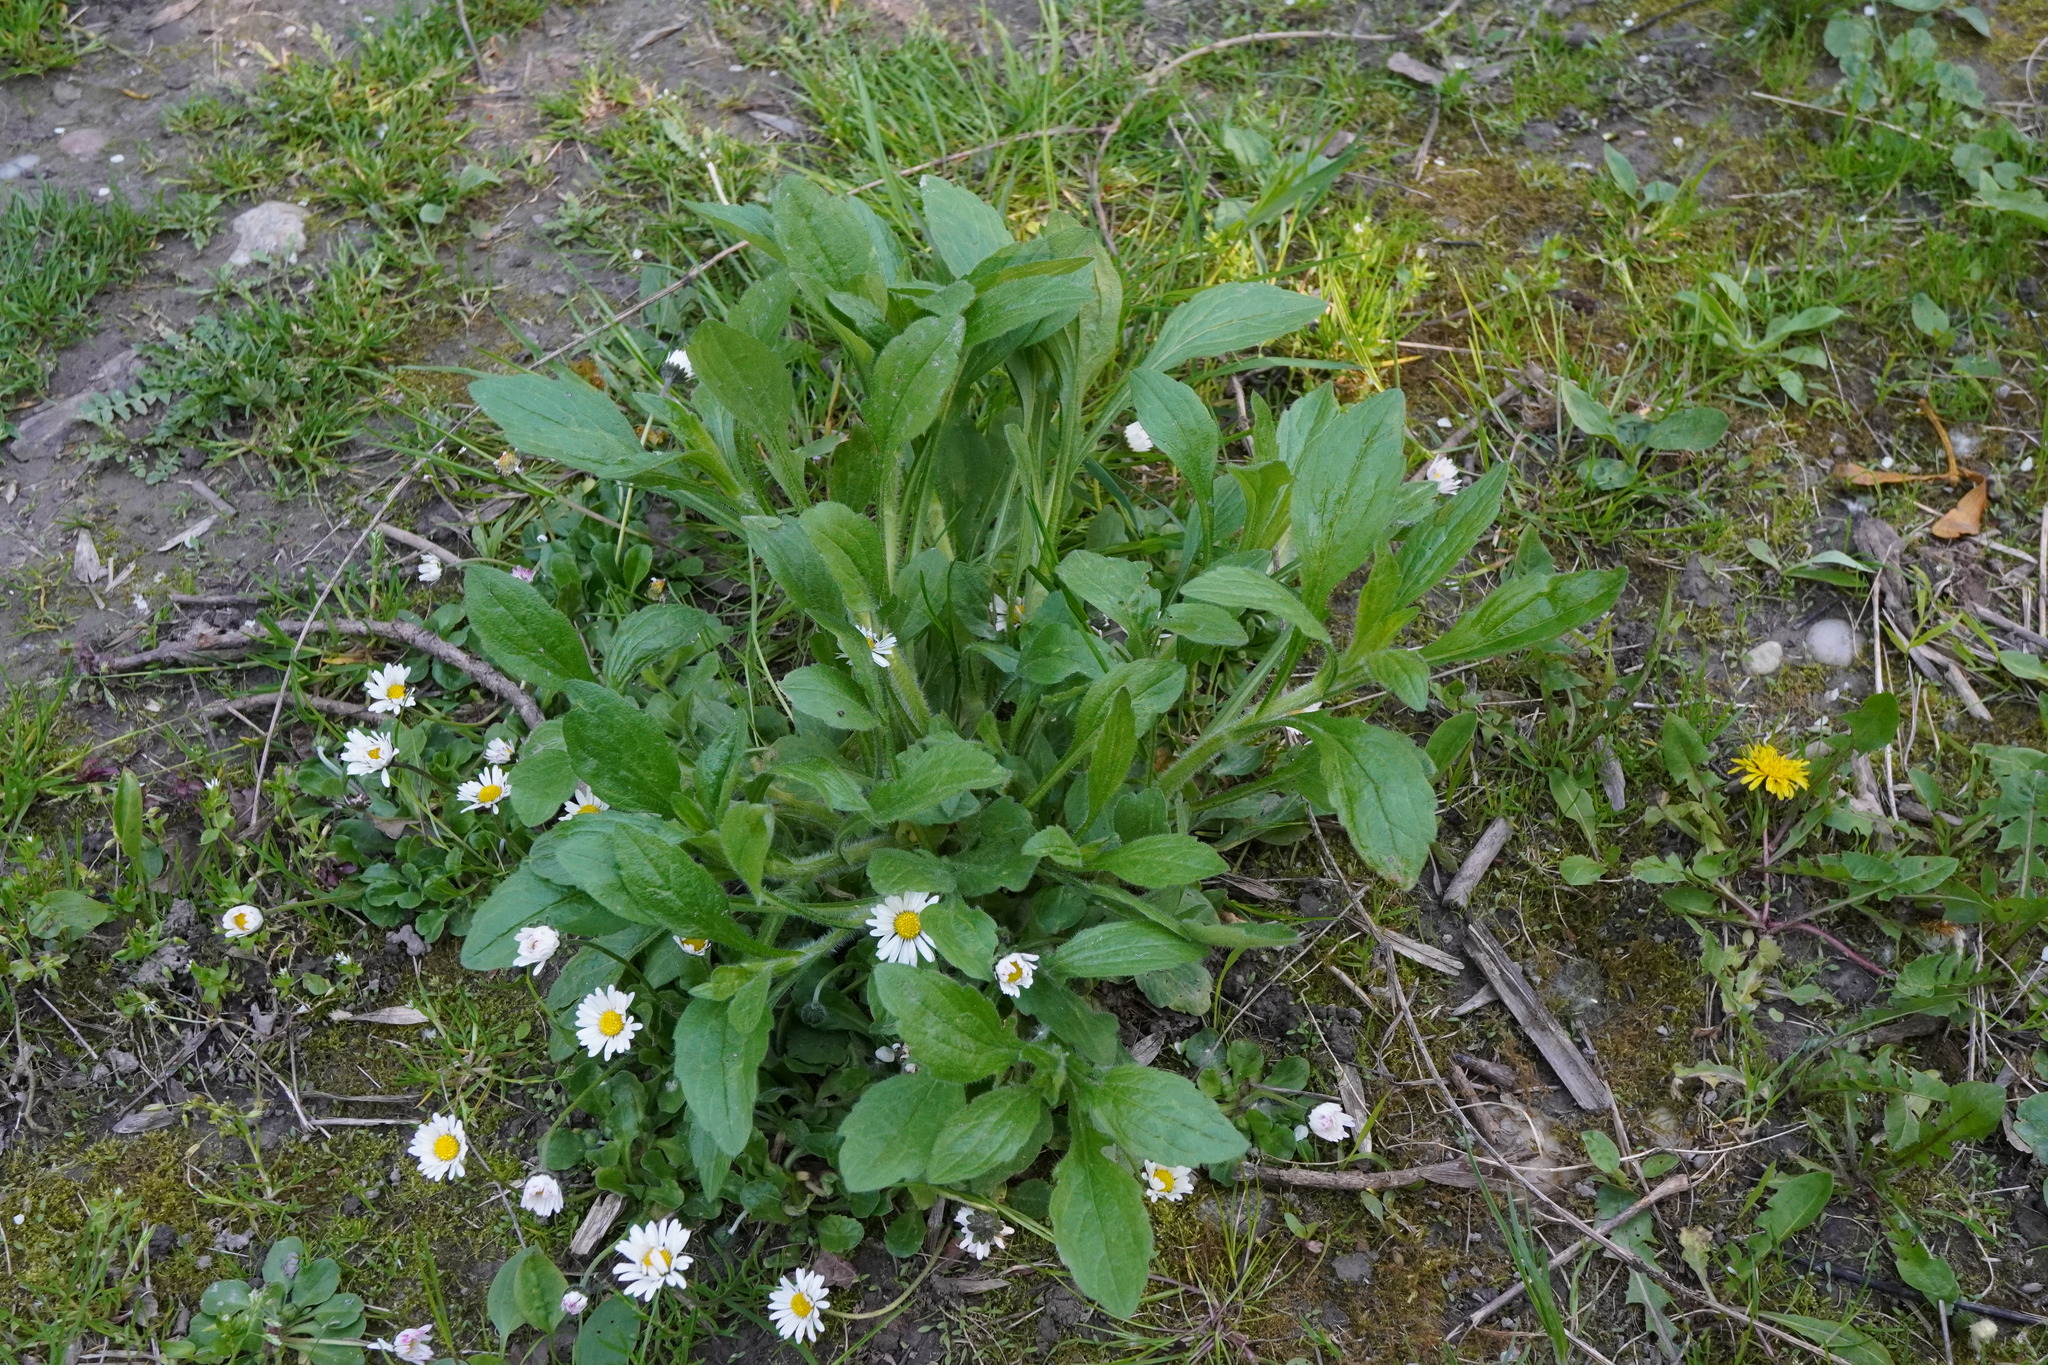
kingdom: Plantae
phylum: Tracheophyta
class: Magnoliopsida
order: Asterales
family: Asteraceae
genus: Erigeron
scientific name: Erigeron annuus
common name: Tall fleabane
